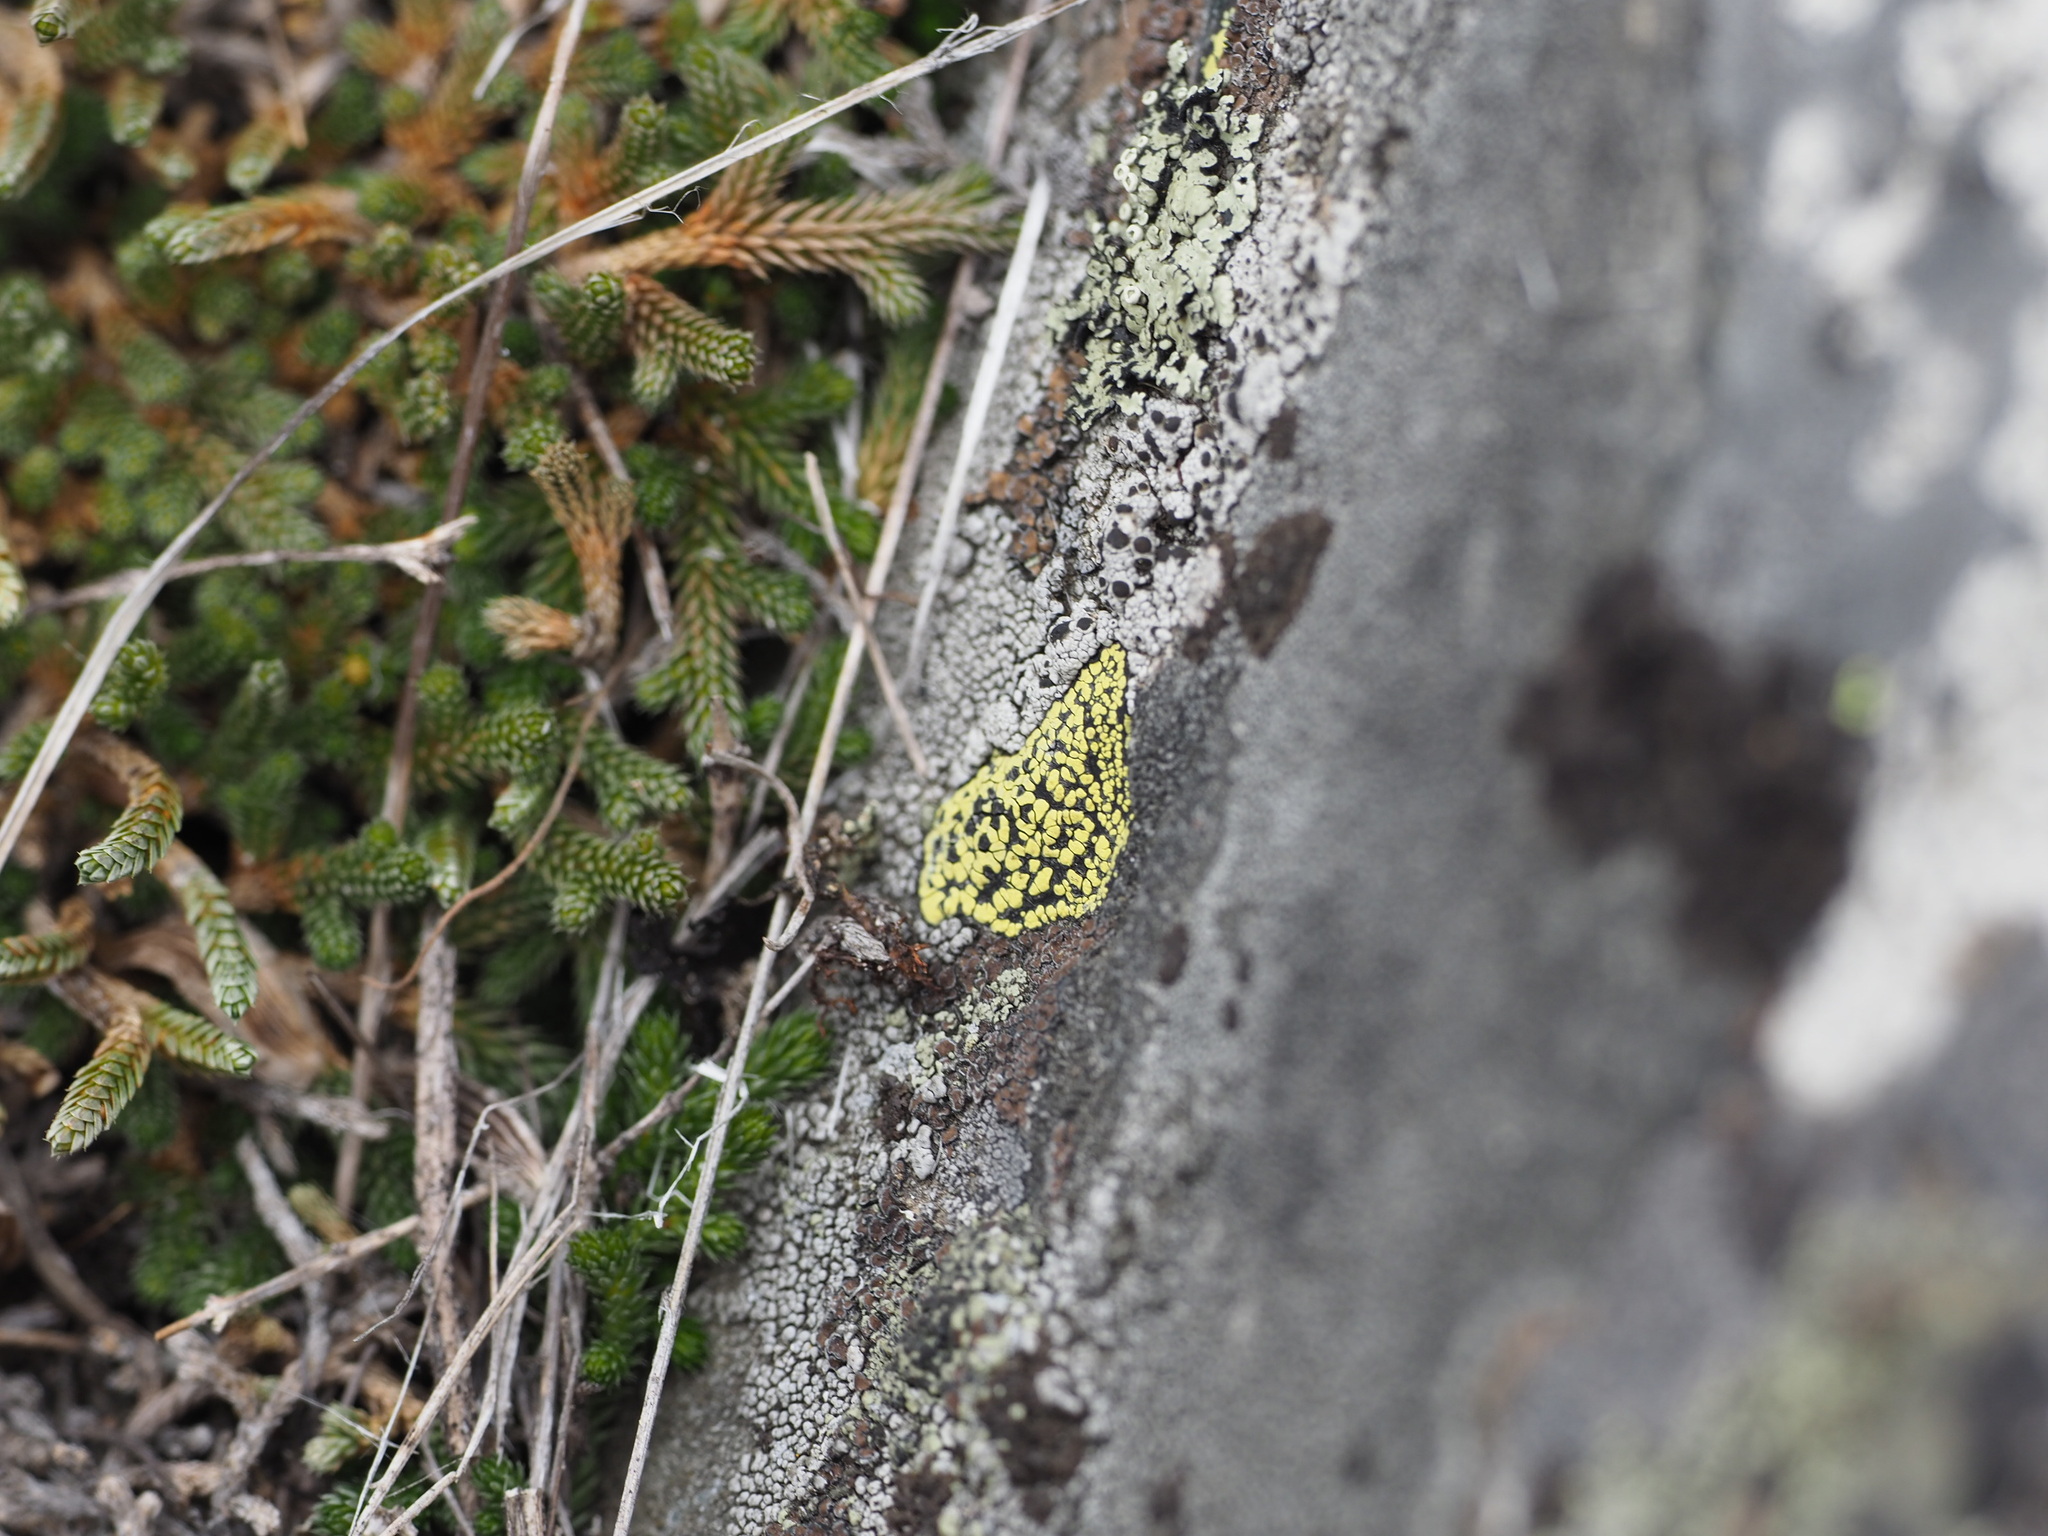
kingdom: Plantae
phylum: Tracheophyta
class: Lycopodiopsida
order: Selaginellales
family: Selaginellaceae
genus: Selaginella
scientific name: Selaginella wallacei
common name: Wallace's selaginella
